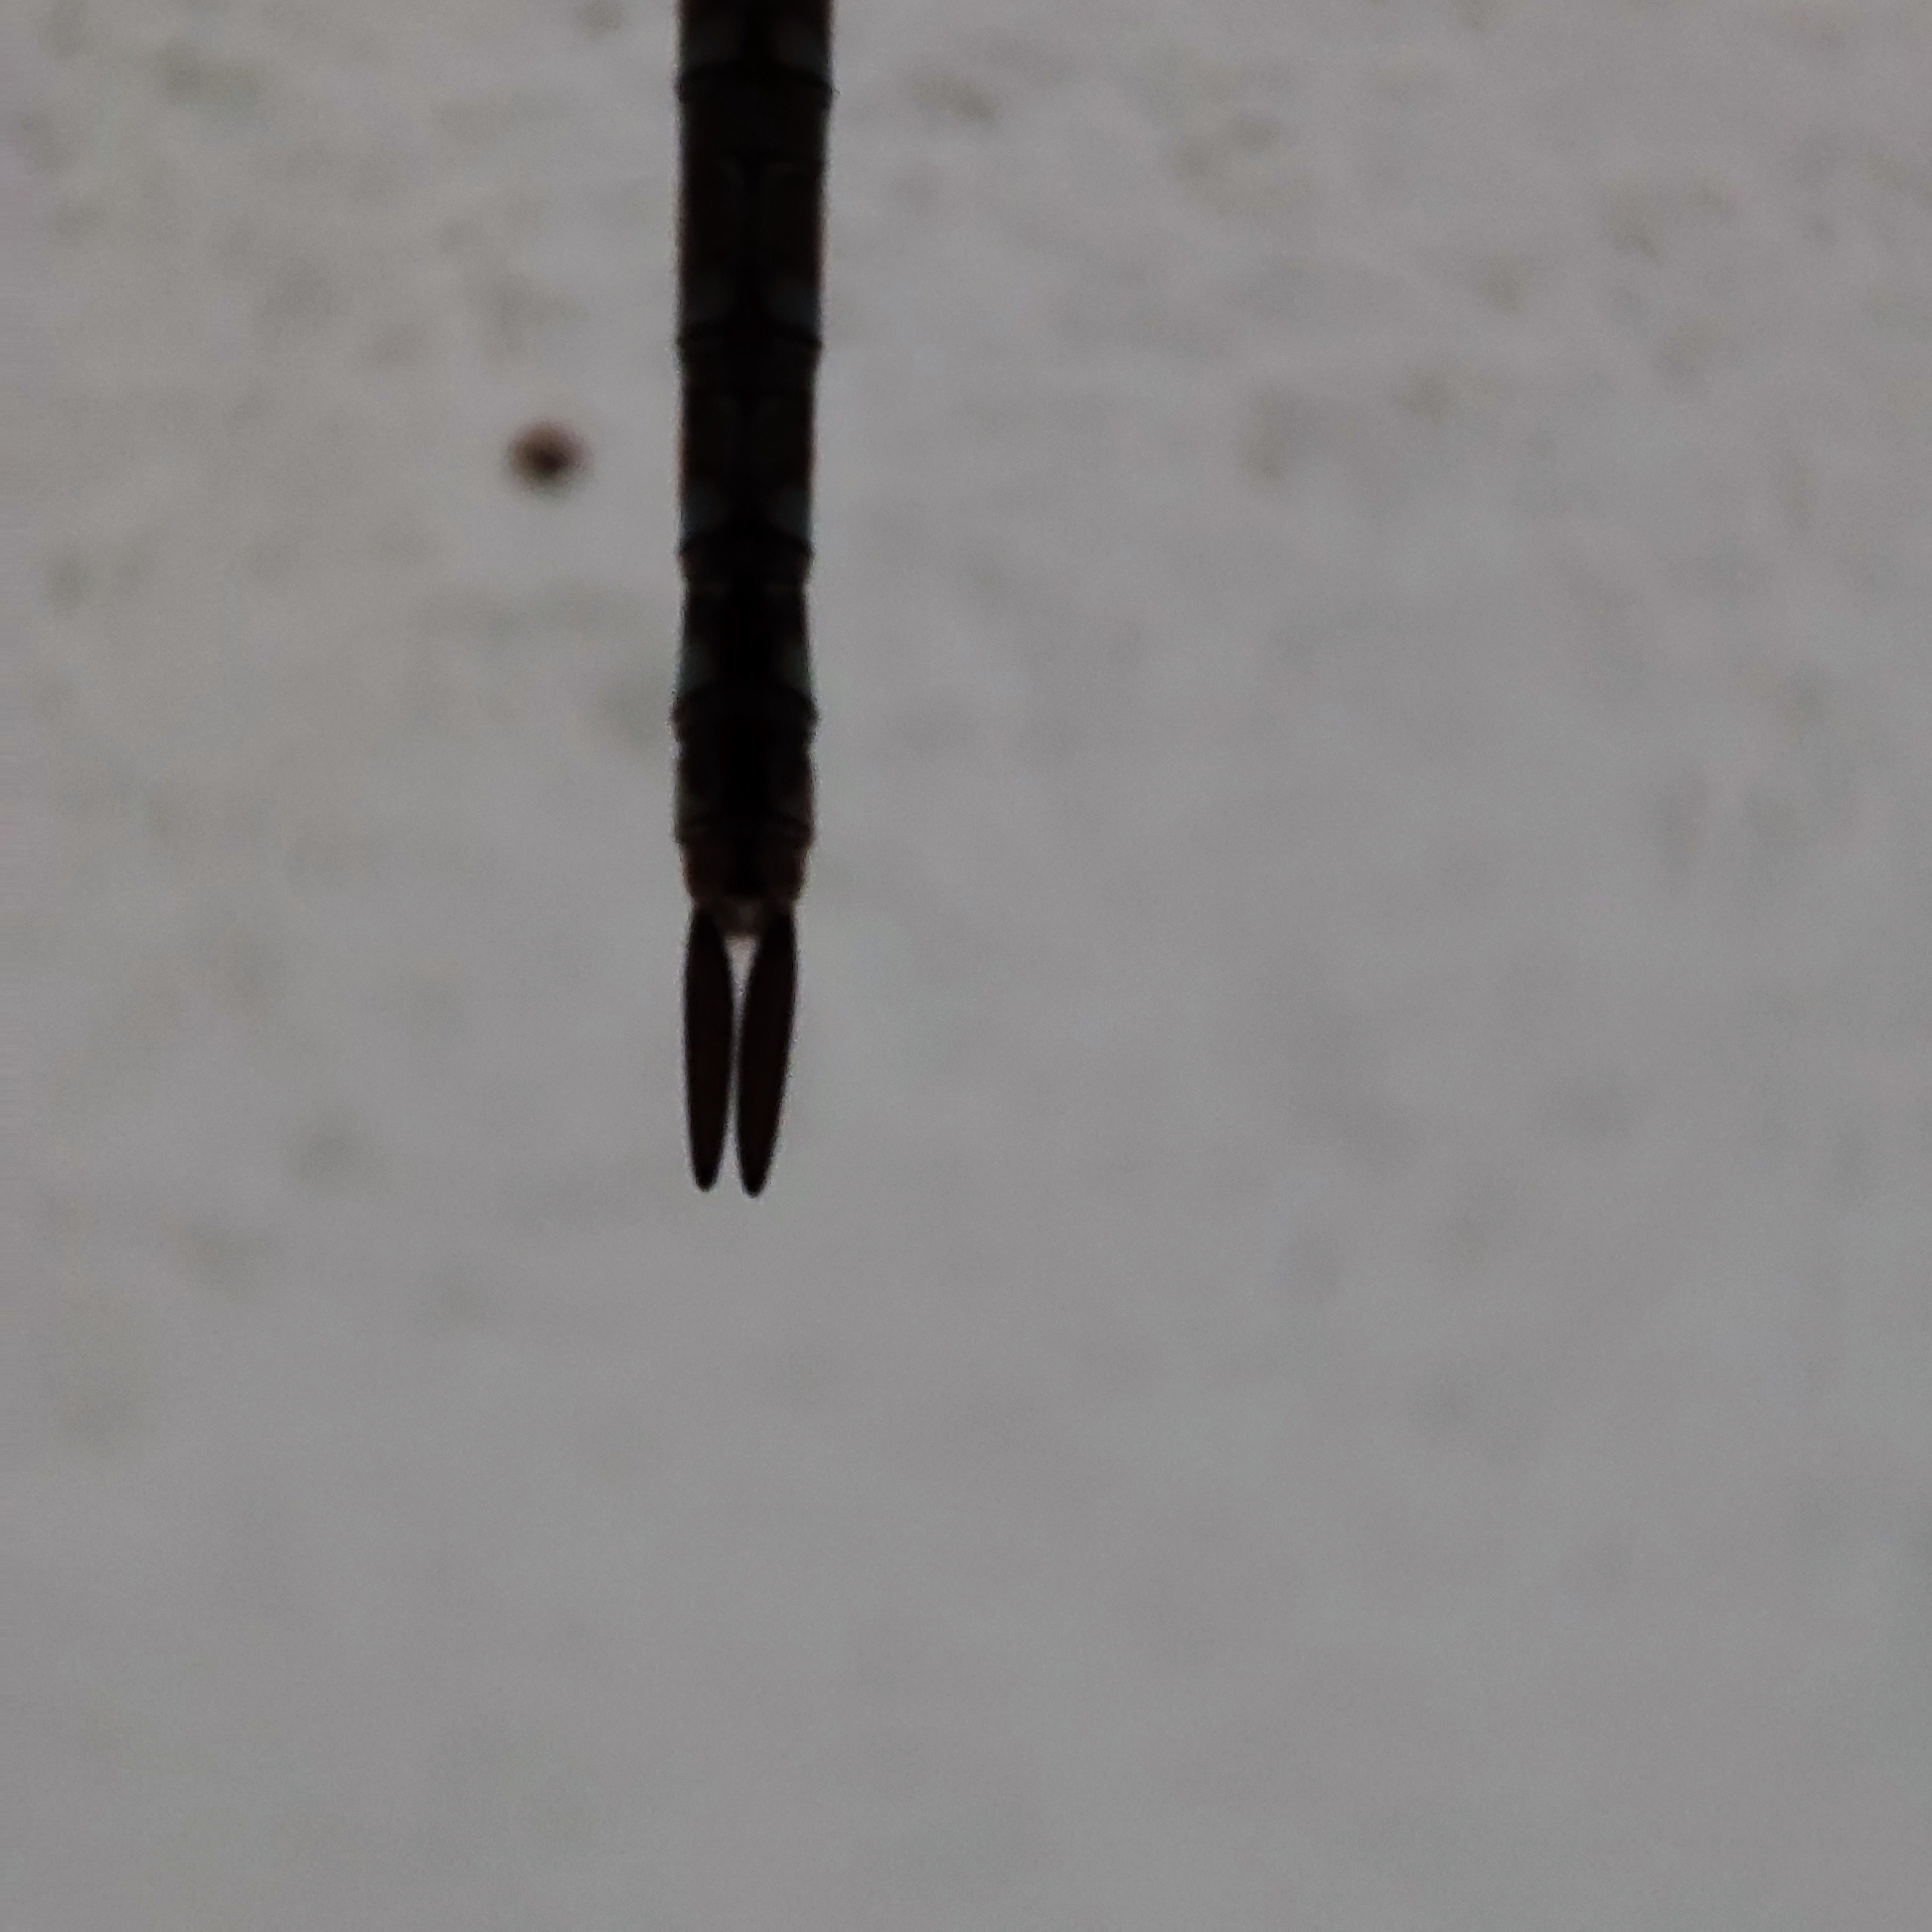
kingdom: Animalia
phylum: Arthropoda
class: Insecta
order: Odonata
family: Aeshnidae
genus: Rhionaeschna
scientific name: Rhionaeschna bonariensis
